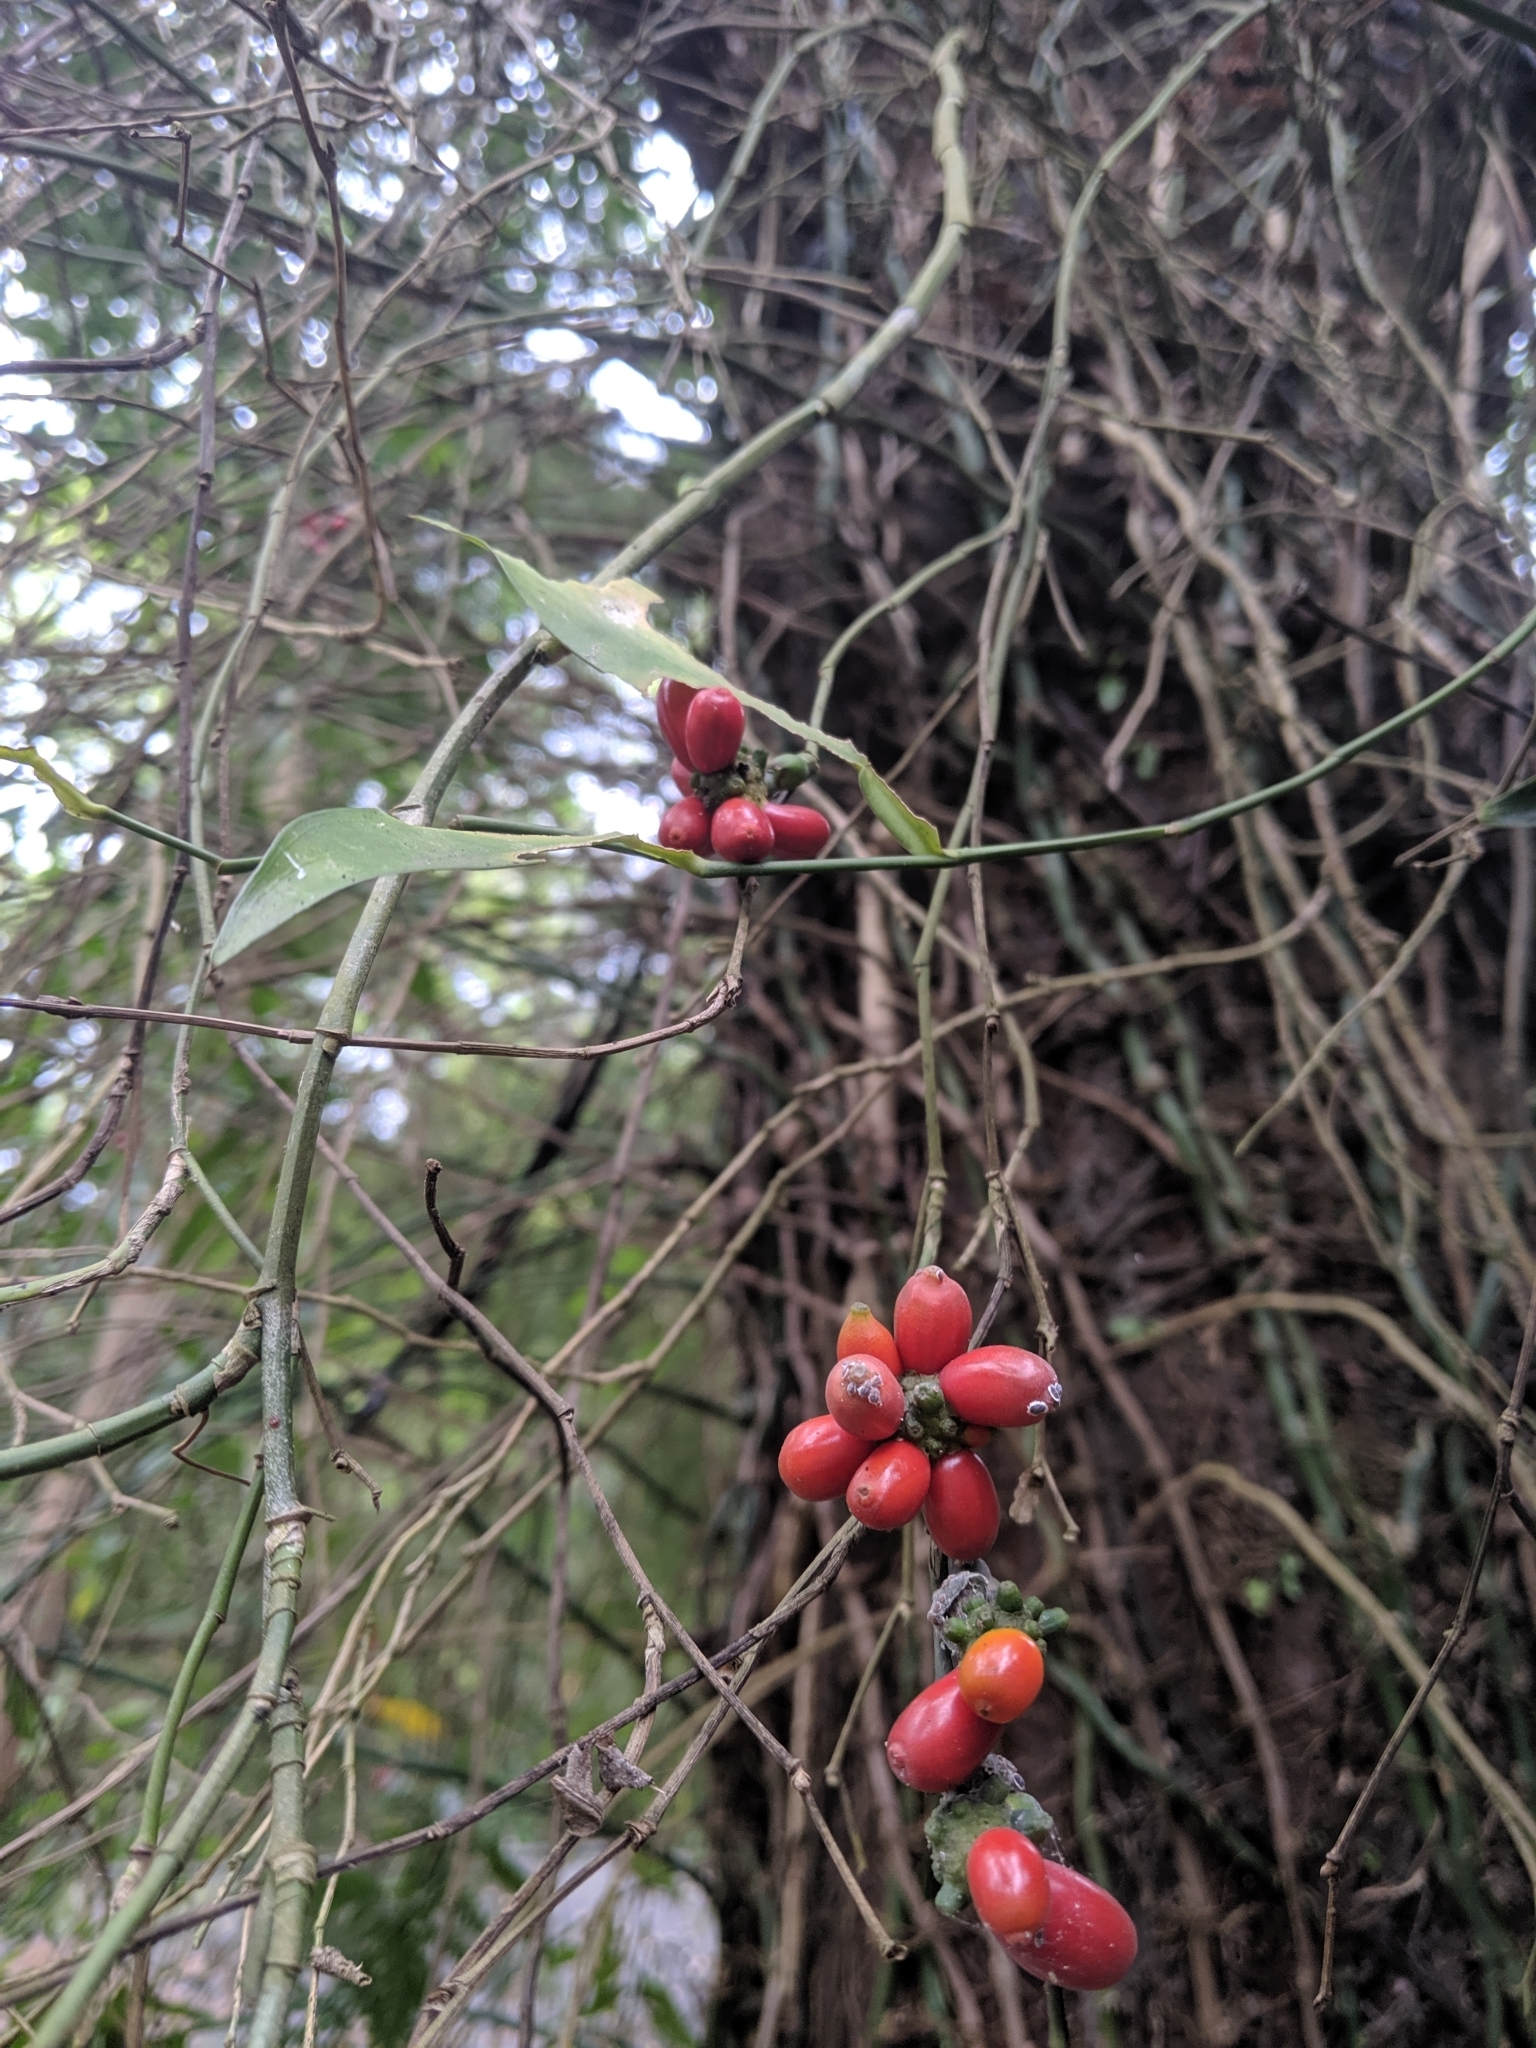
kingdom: Plantae
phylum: Tracheophyta
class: Liliopsida
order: Alismatales
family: Araceae
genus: Pothos
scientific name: Pothos chinensis
